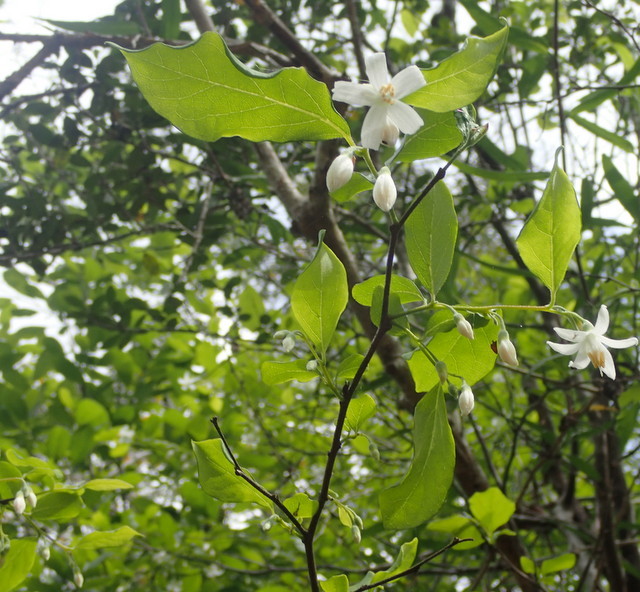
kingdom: Plantae
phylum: Tracheophyta
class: Magnoliopsida
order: Ericales
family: Styracaceae
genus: Styrax
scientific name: Styrax americanus
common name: American snowbell
